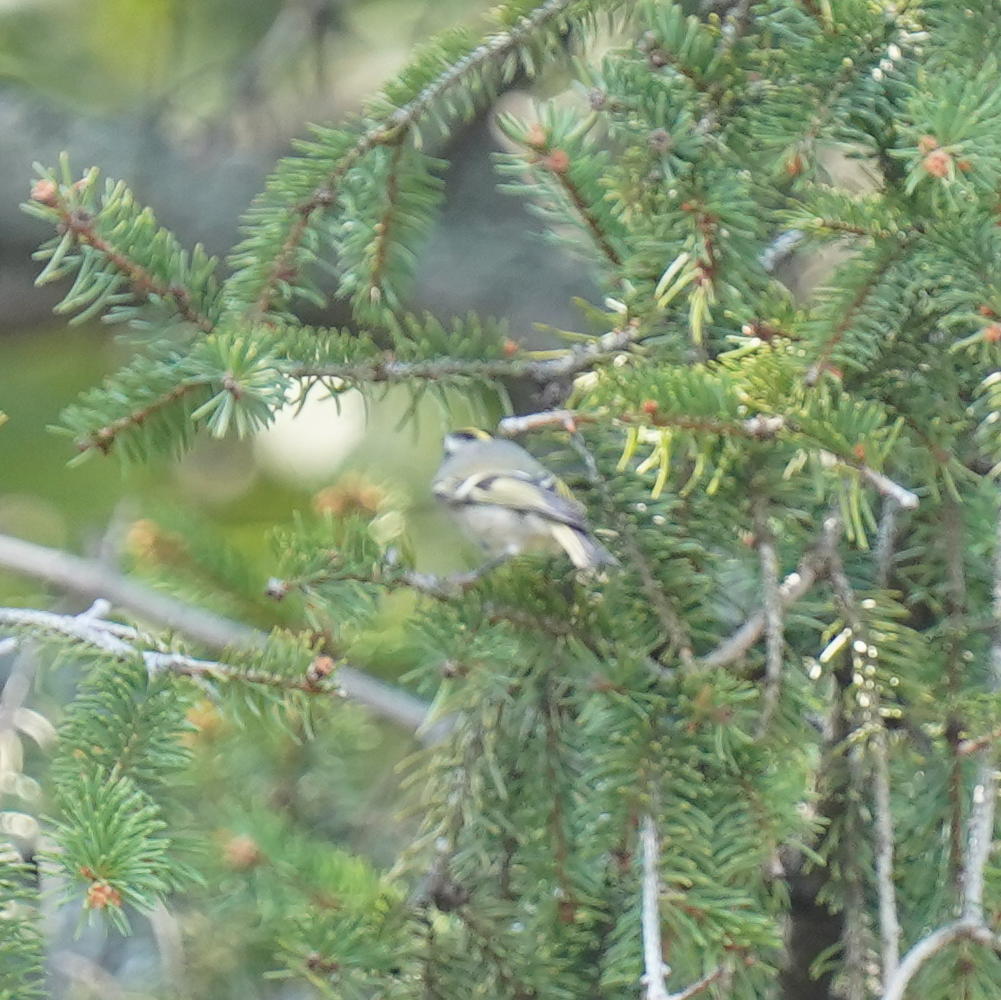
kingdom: Animalia
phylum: Chordata
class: Aves
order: Passeriformes
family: Regulidae
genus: Regulus
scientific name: Regulus satrapa
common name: Golden-crowned kinglet
